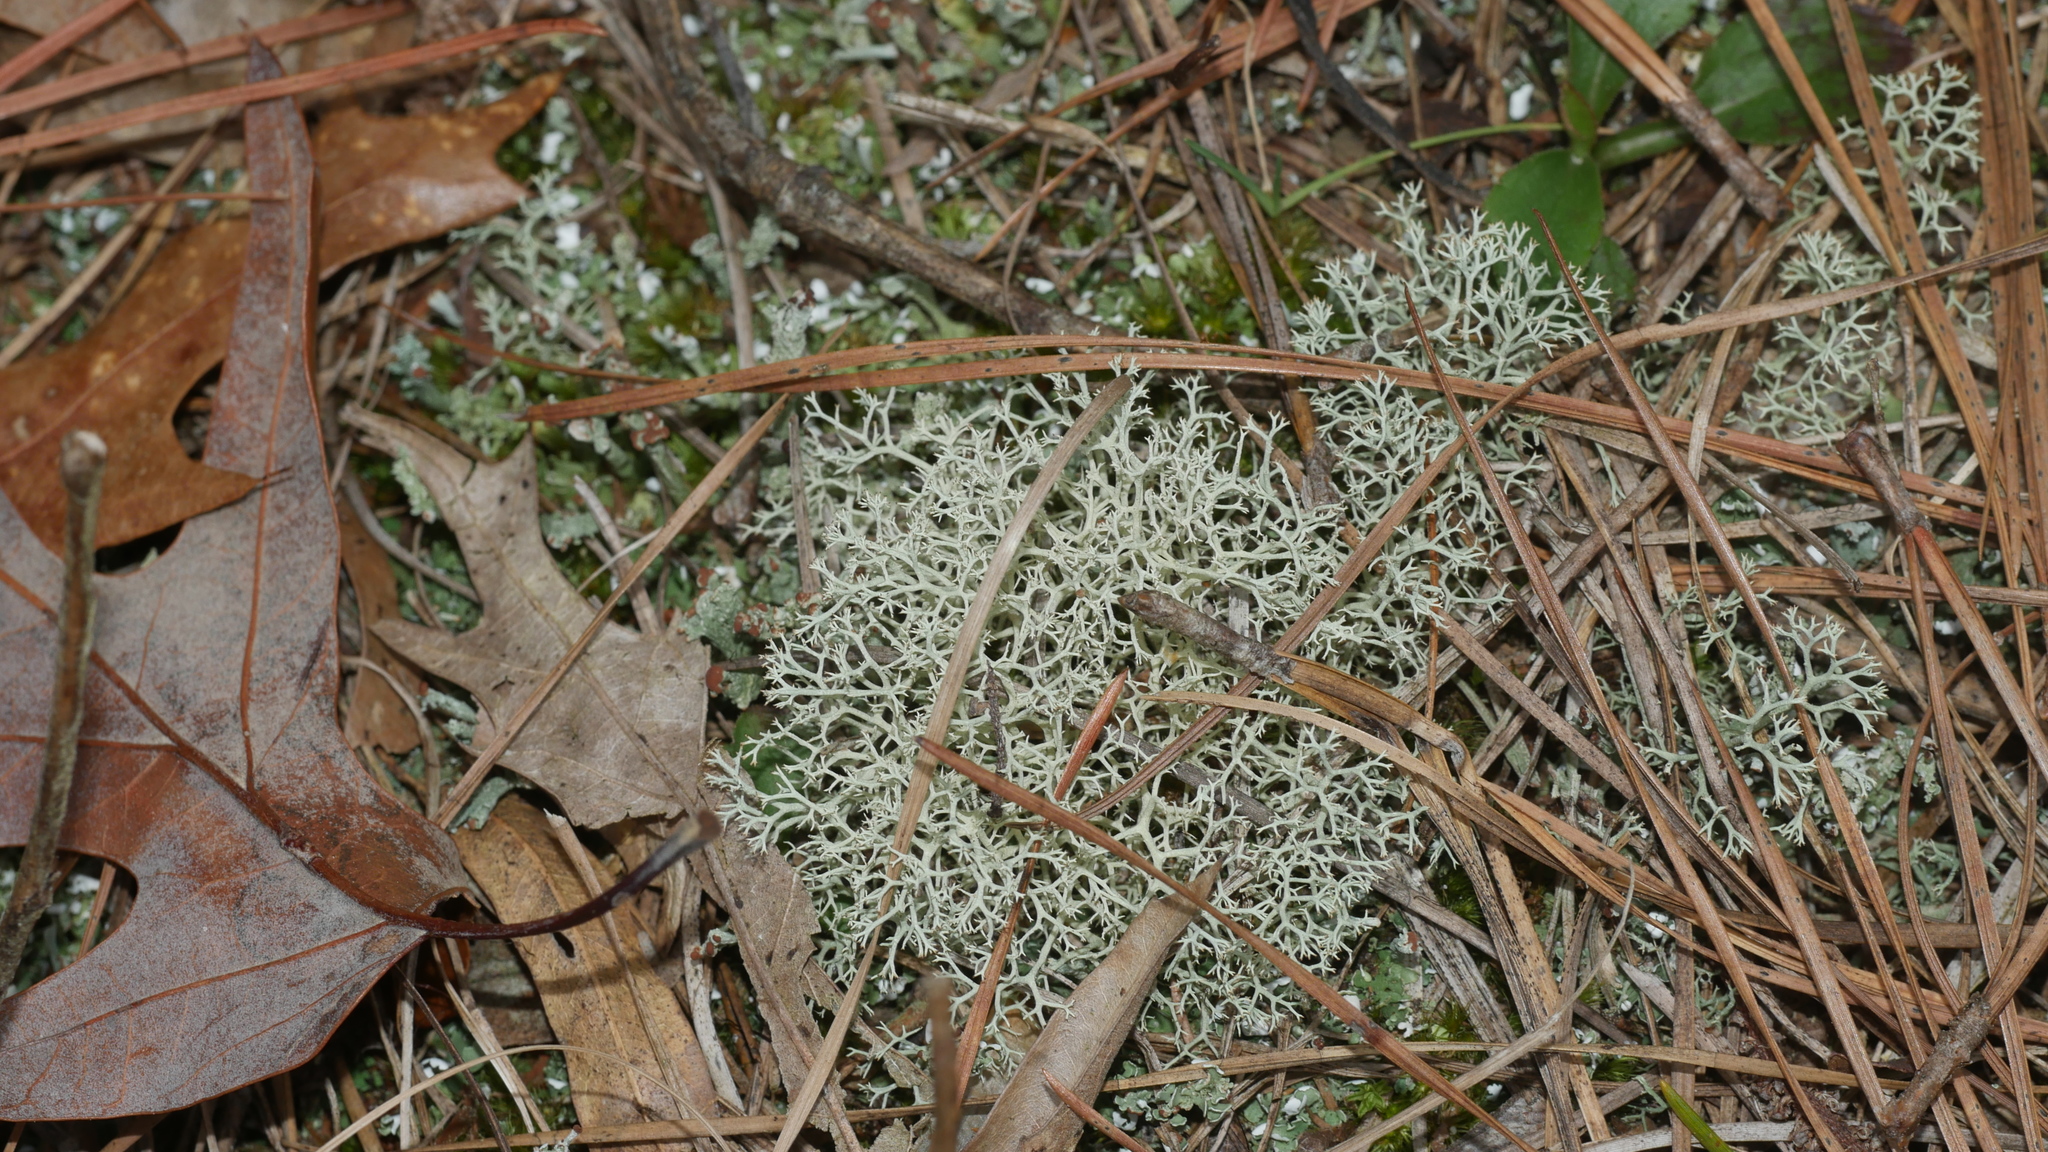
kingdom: Fungi
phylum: Ascomycota
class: Lecanoromycetes
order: Lecanorales
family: Cladoniaceae
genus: Cladonia
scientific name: Cladonia subtenuis
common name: Dixie reindeer lichen
